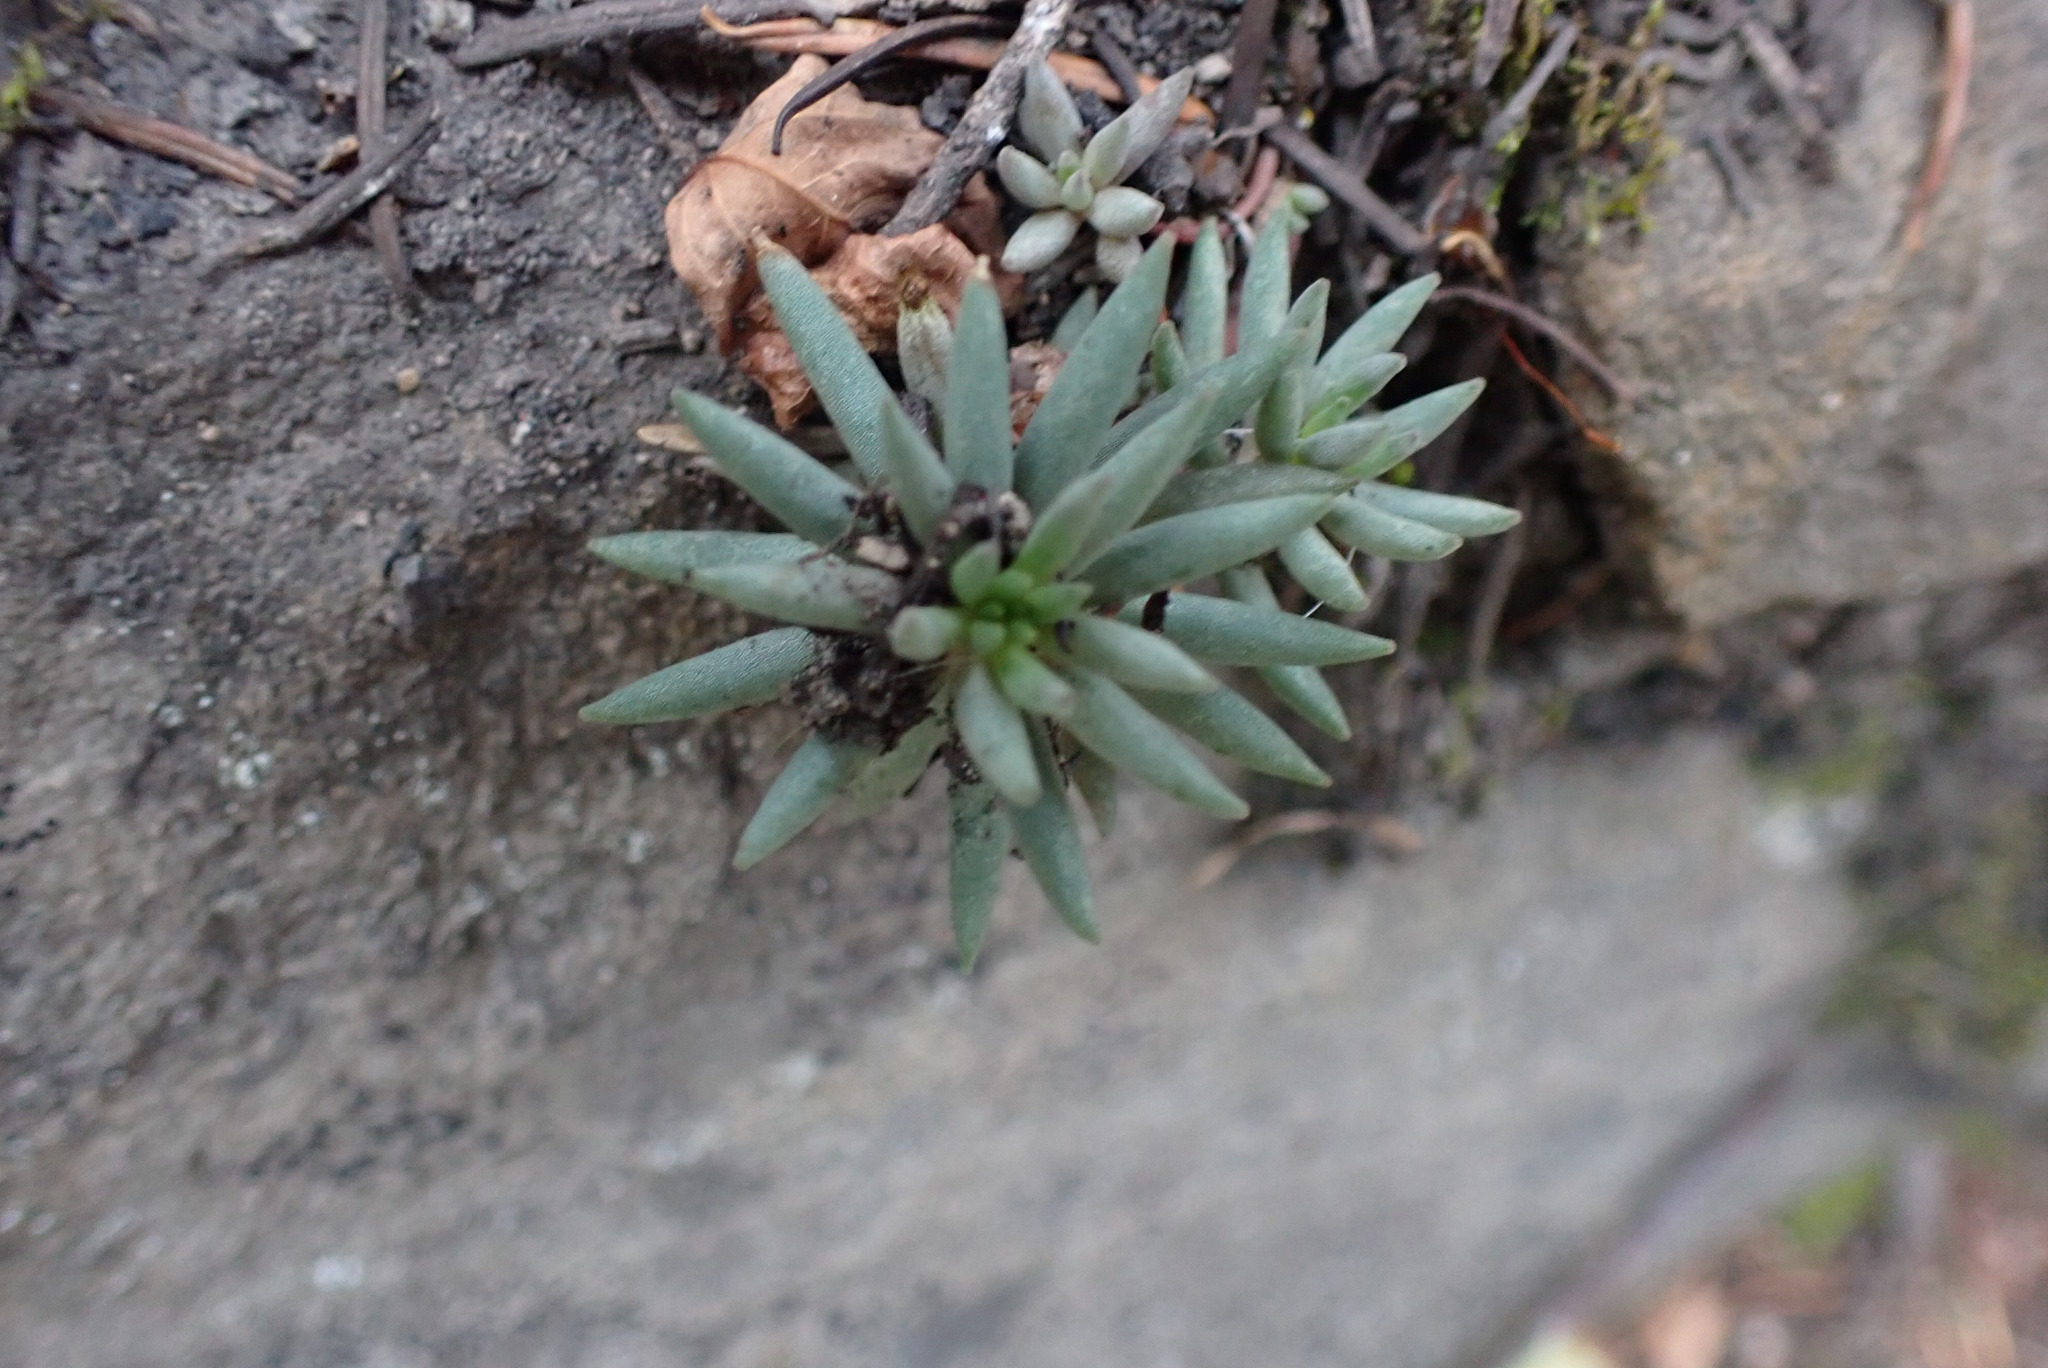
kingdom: Plantae
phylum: Tracheophyta
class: Magnoliopsida
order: Saxifragales
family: Crassulaceae
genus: Sedum
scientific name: Sedum lanceolatum
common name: Common stonecrop
